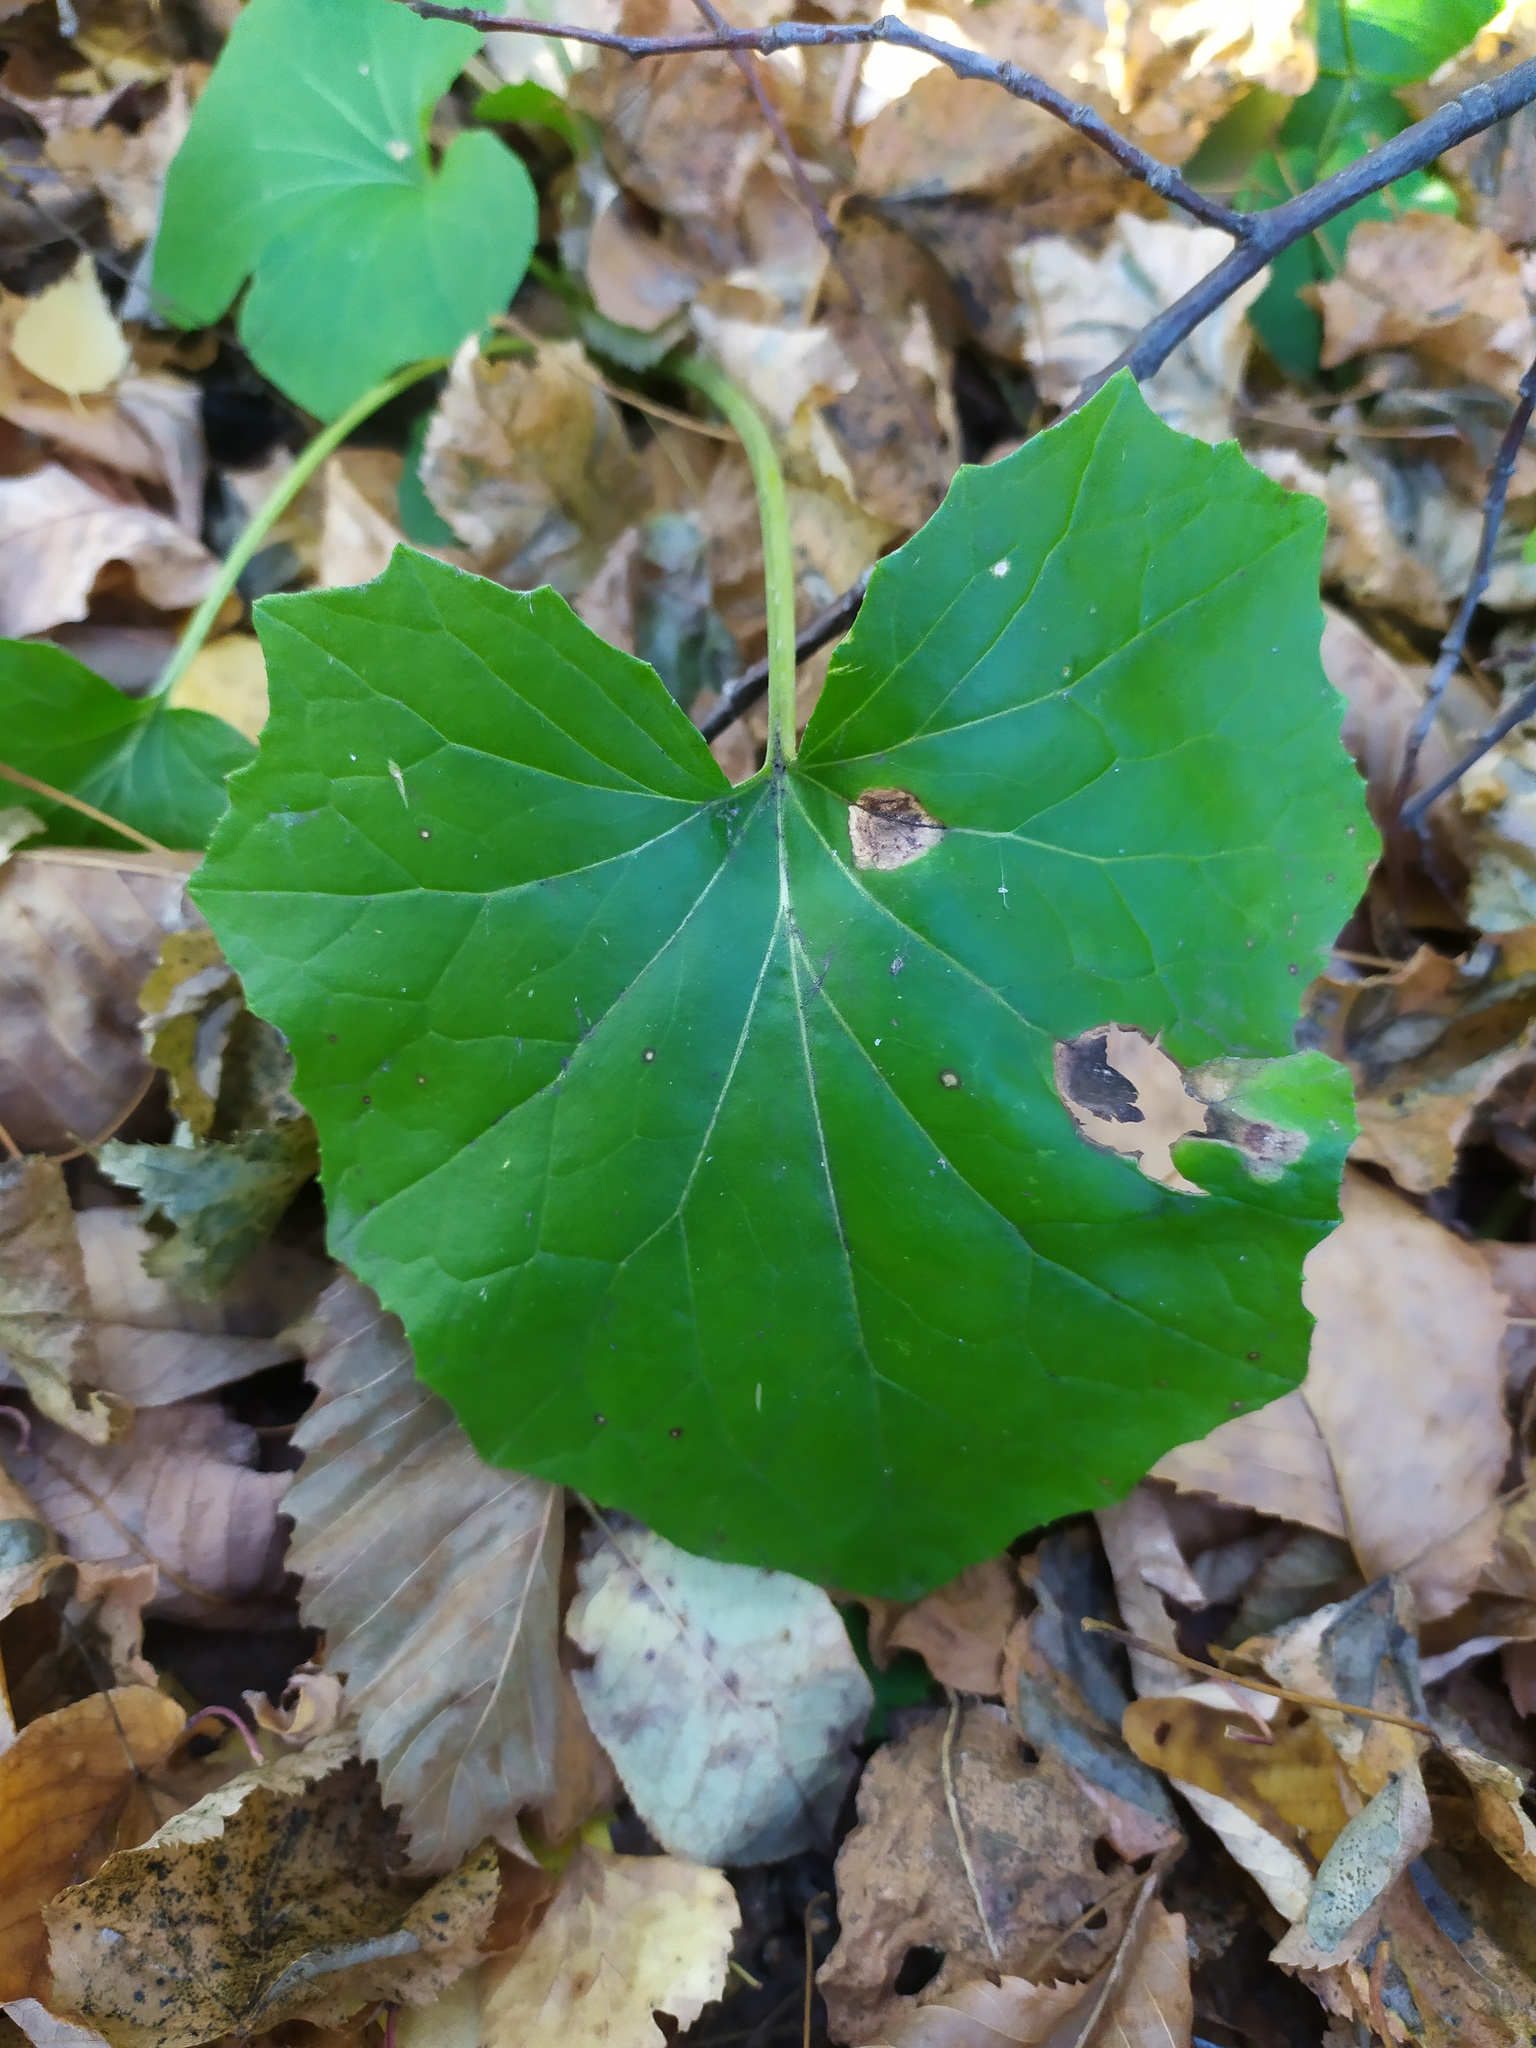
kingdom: Plantae
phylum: Tracheophyta
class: Magnoliopsida
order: Asterales
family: Asteraceae
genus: Tussilago
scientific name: Tussilago farfara
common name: Coltsfoot
